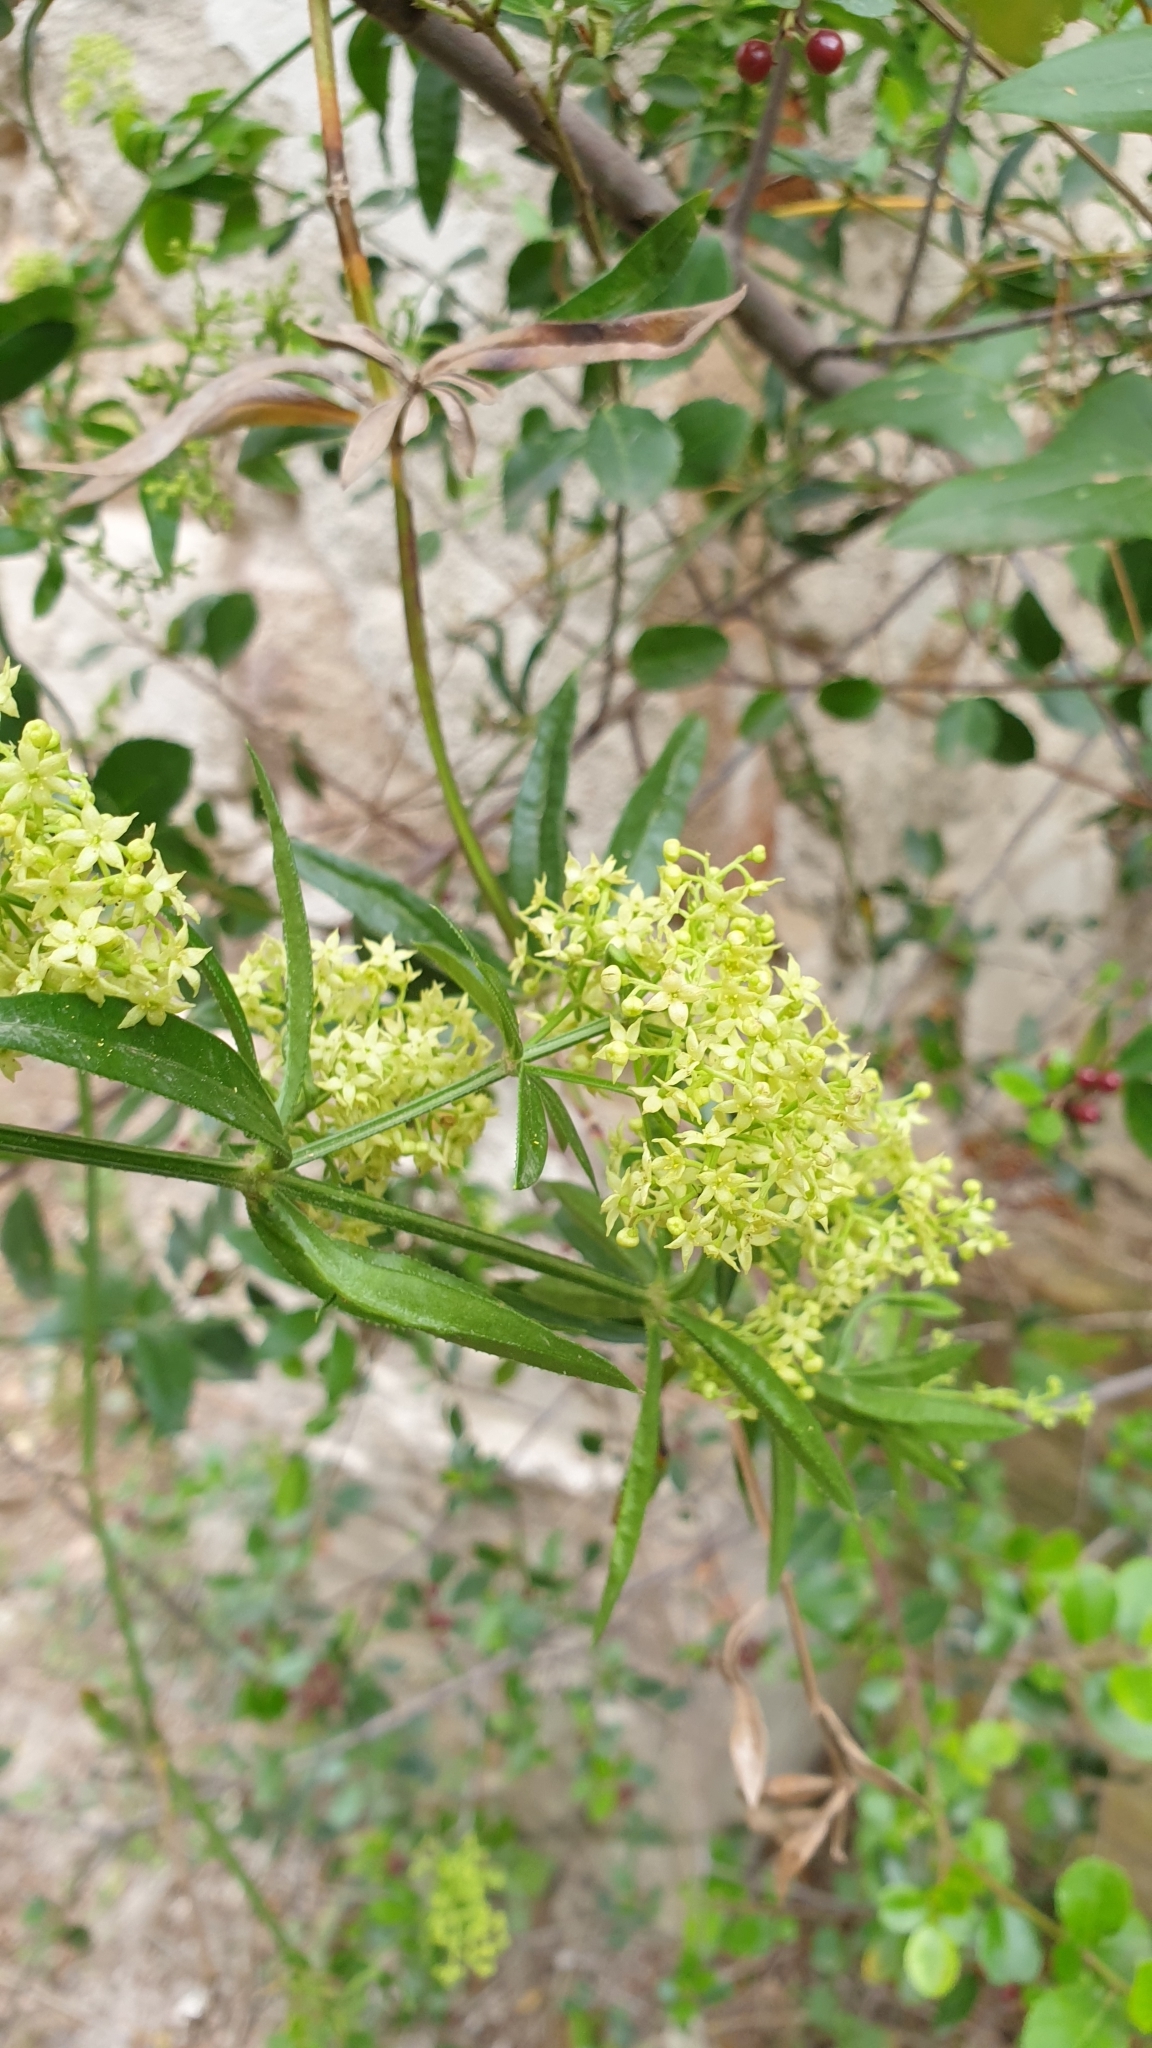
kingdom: Plantae
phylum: Tracheophyta
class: Magnoliopsida
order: Gentianales
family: Rubiaceae
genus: Rubia
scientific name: Rubia peregrina
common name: Wild madder
